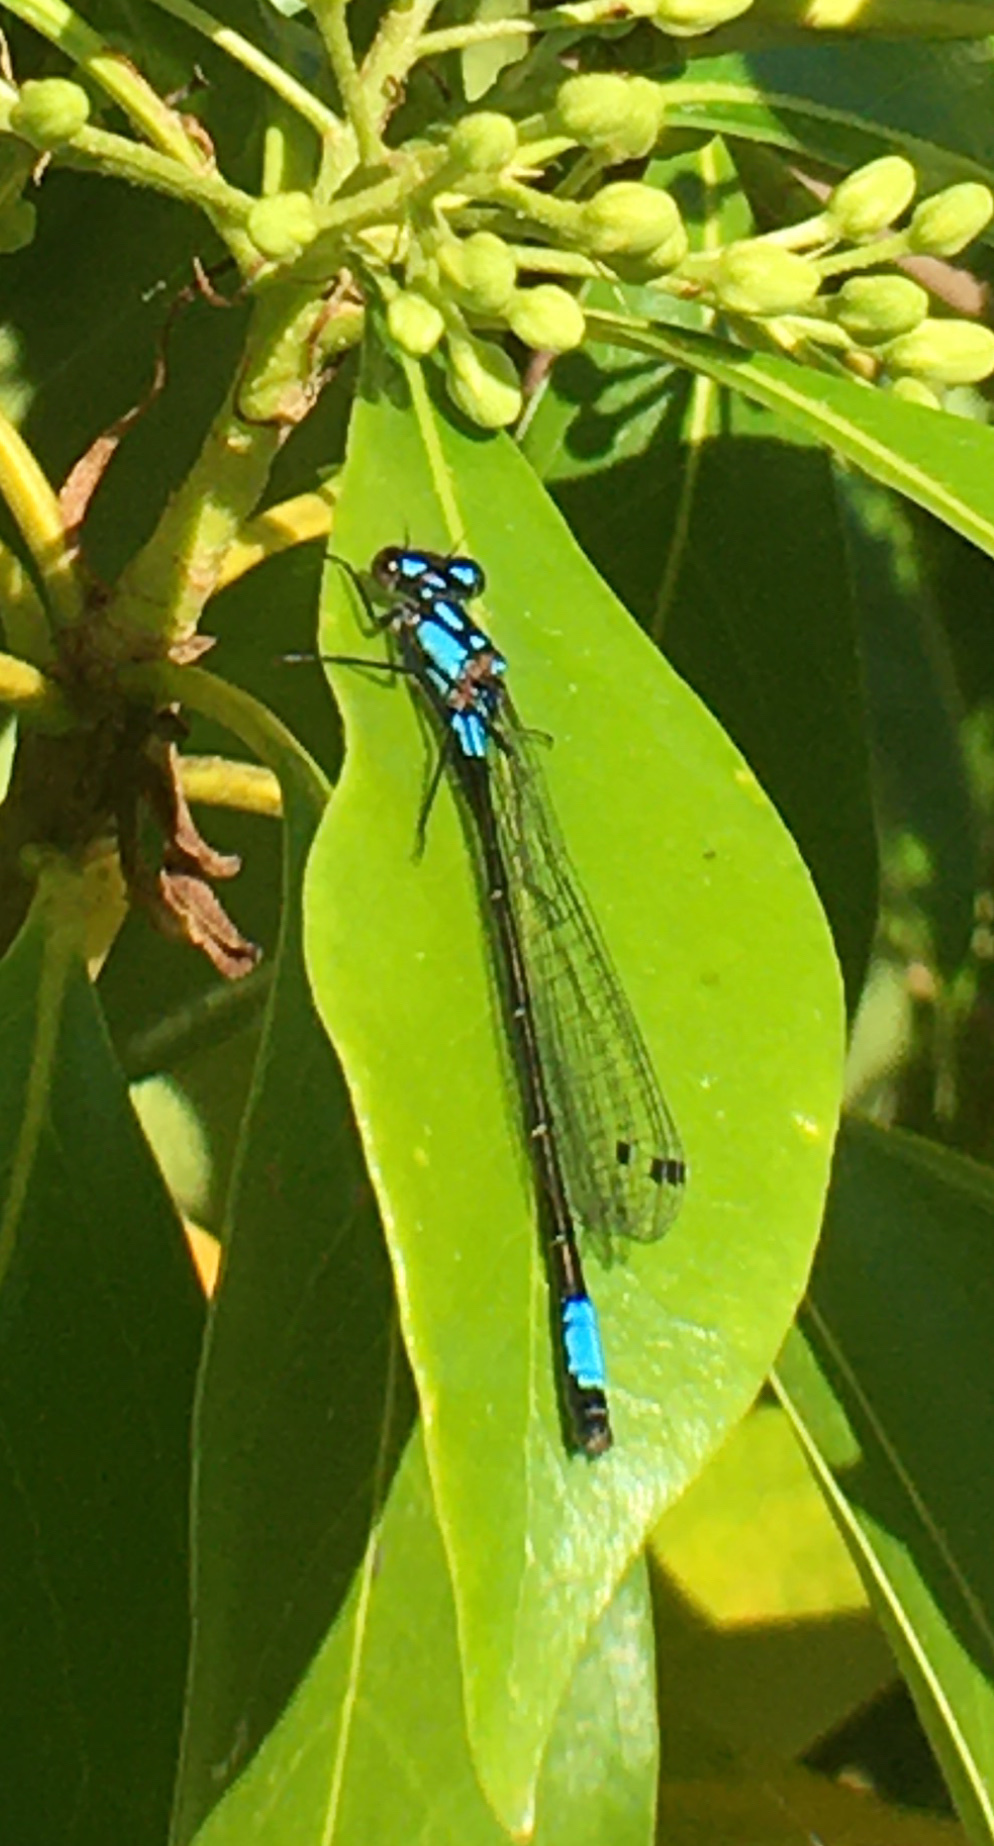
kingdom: Animalia
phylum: Arthropoda
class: Insecta
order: Odonata
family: Coenagrionidae
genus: Zoniagrion
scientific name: Zoniagrion exclamationis
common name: Exclamation damsel
